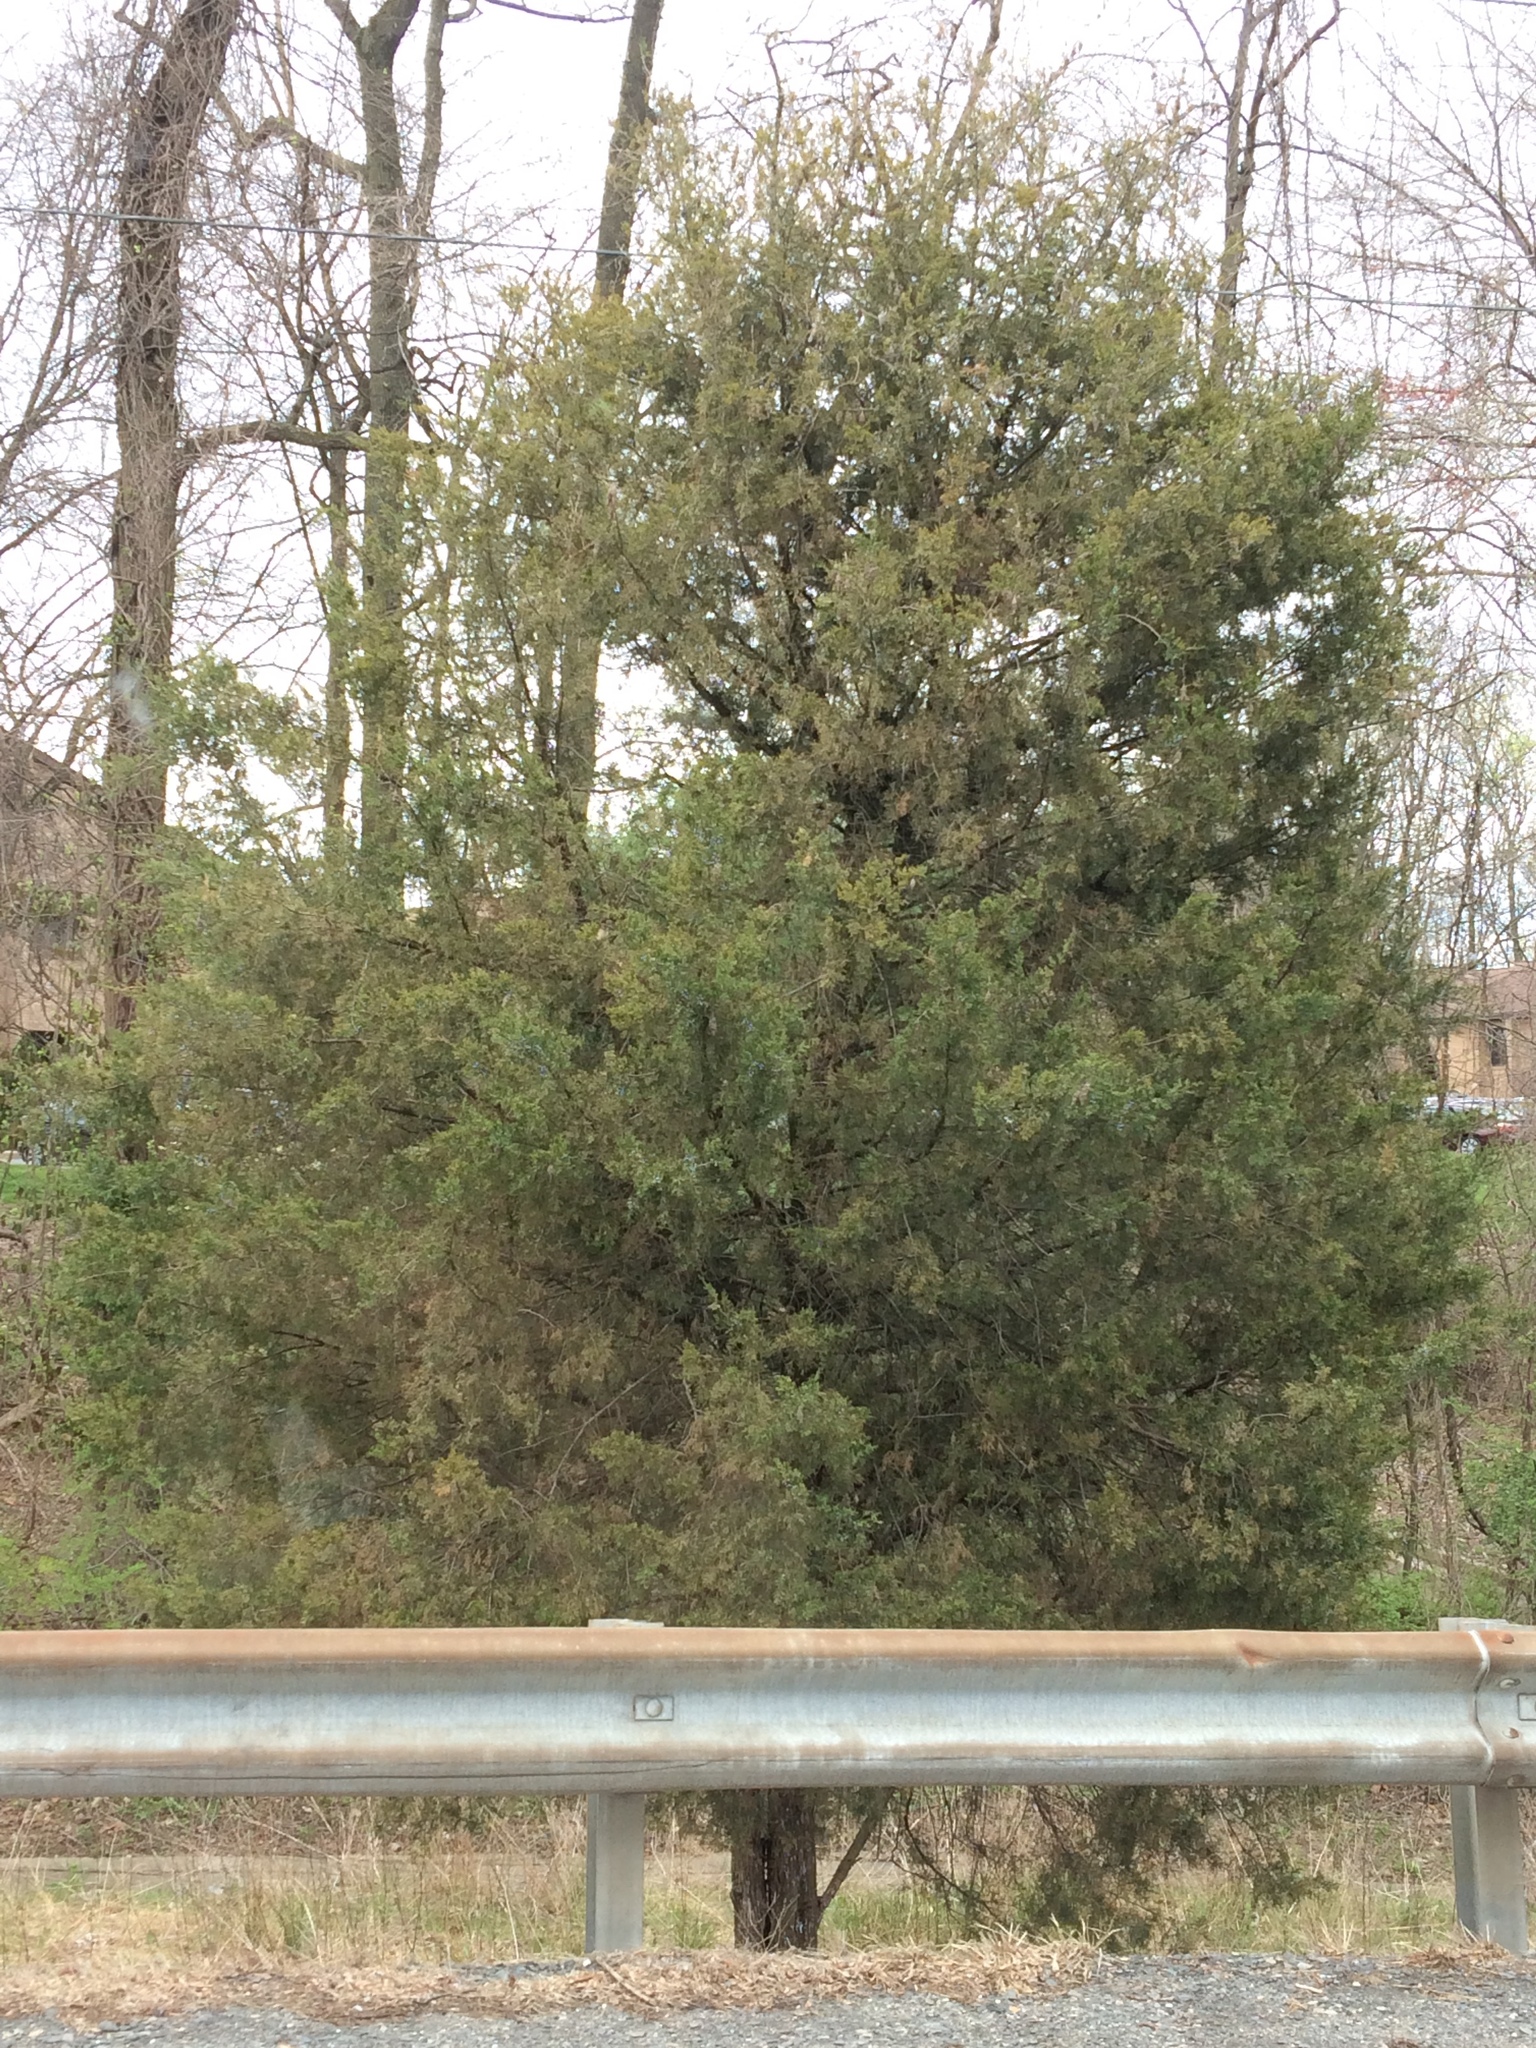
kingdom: Plantae
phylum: Tracheophyta
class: Pinopsida
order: Pinales
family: Cupressaceae
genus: Juniperus
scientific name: Juniperus virginiana
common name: Red juniper
